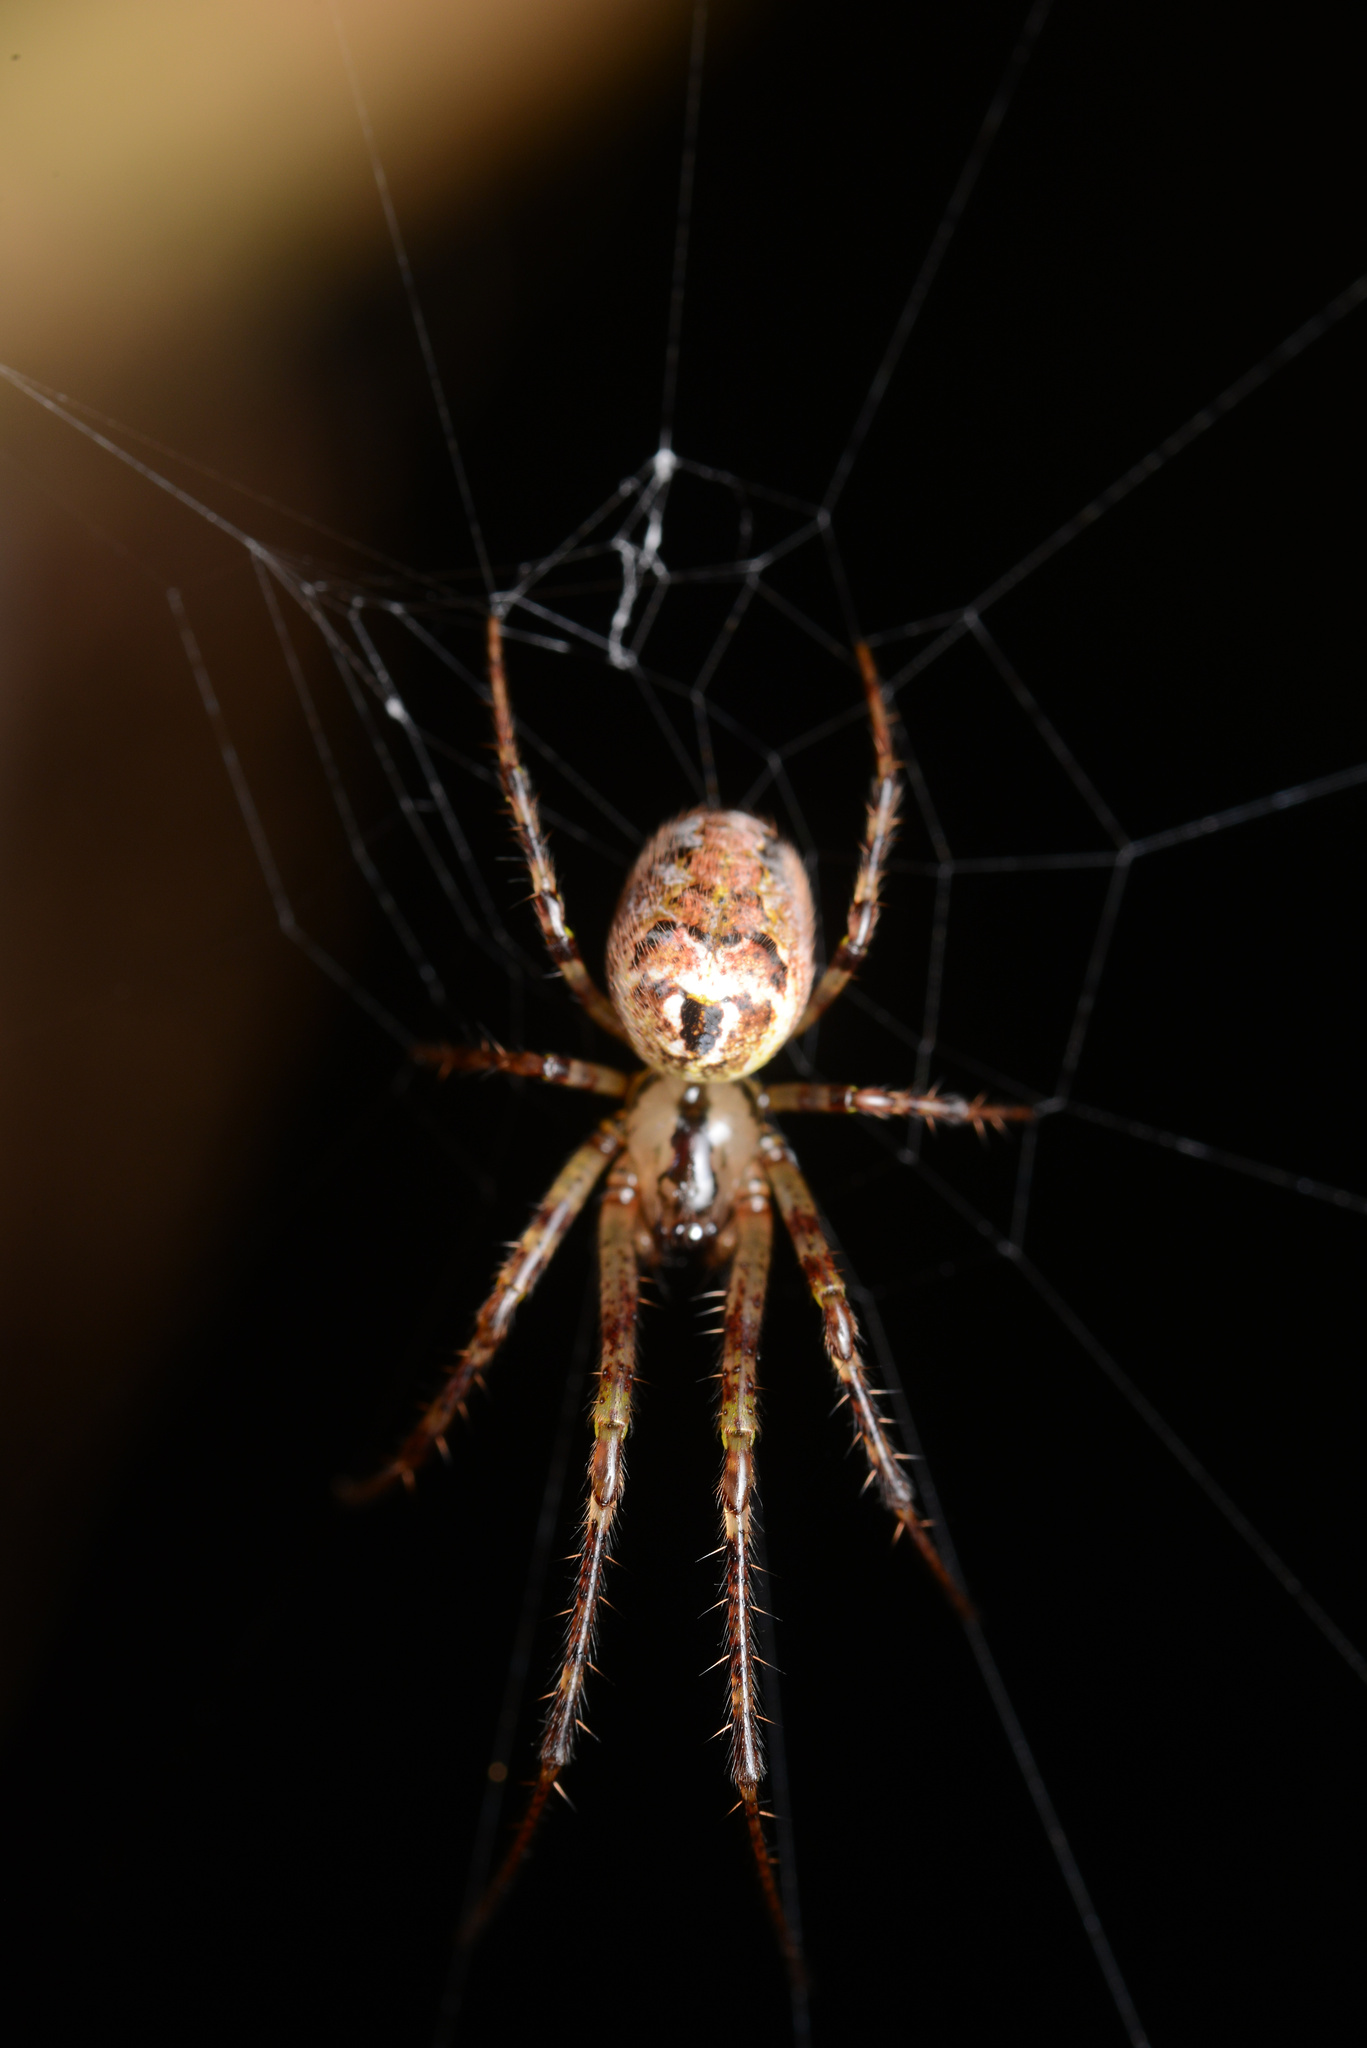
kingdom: Animalia
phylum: Arthropoda
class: Arachnida
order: Araneae
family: Araneidae
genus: Plebs
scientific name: Plebs eburnus
